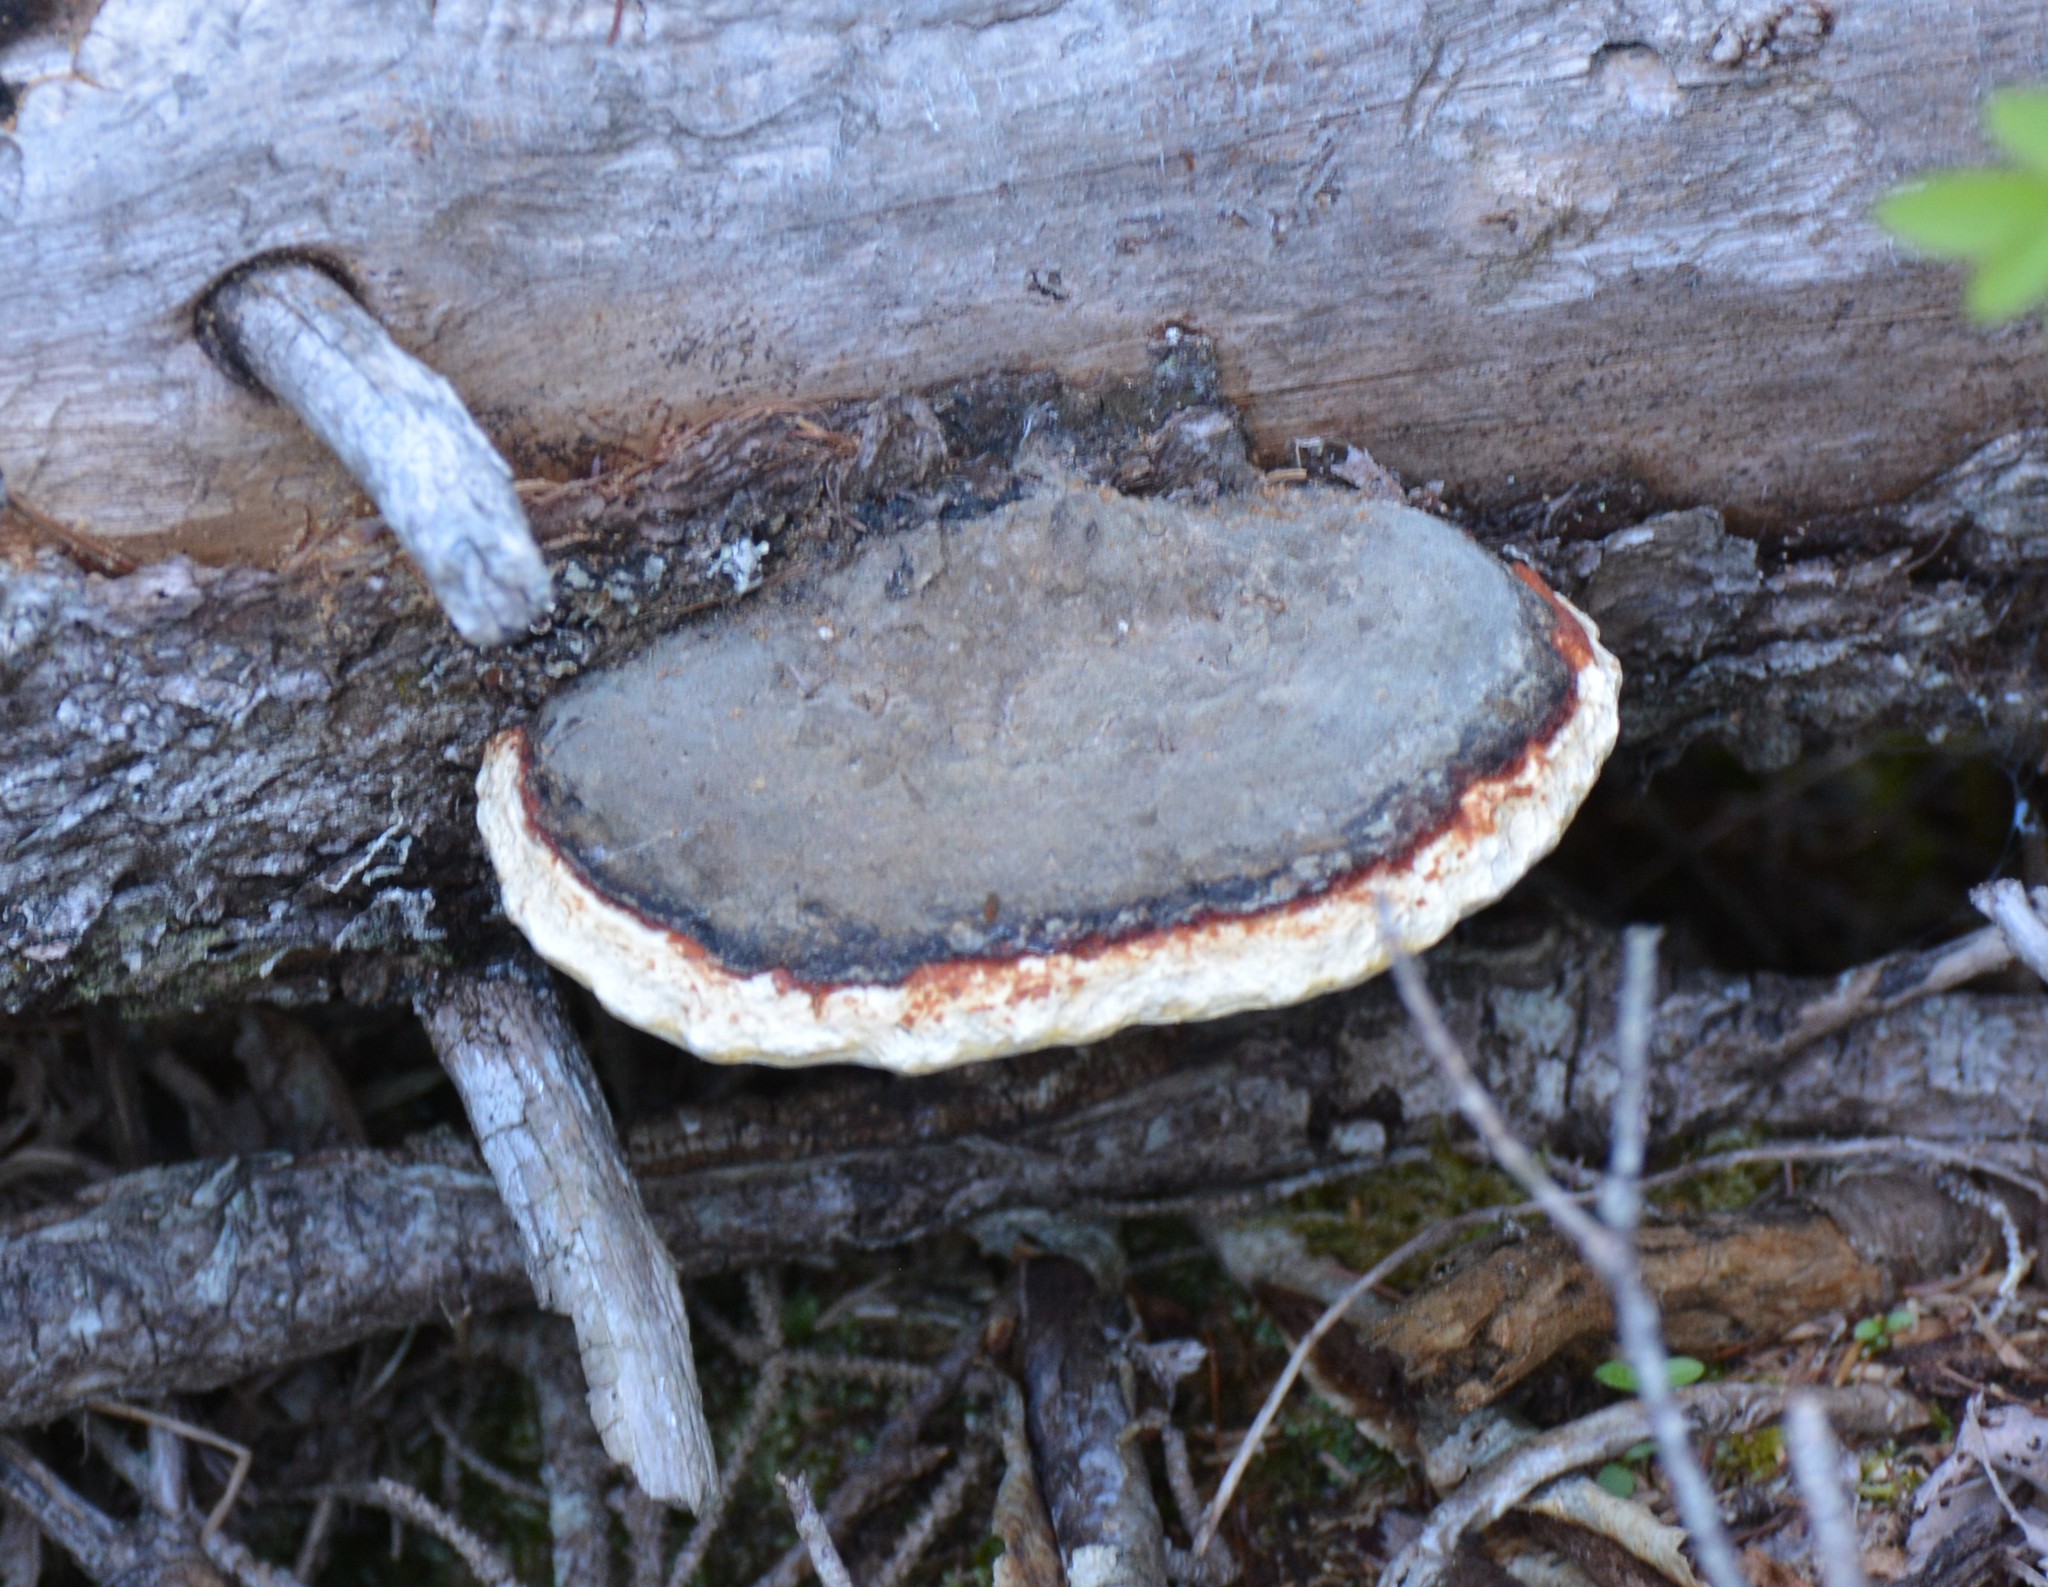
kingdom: Fungi
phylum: Basidiomycota
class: Agaricomycetes
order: Polyporales
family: Fomitopsidaceae
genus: Fomitopsis
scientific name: Fomitopsis mounceae
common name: Northern red belt
